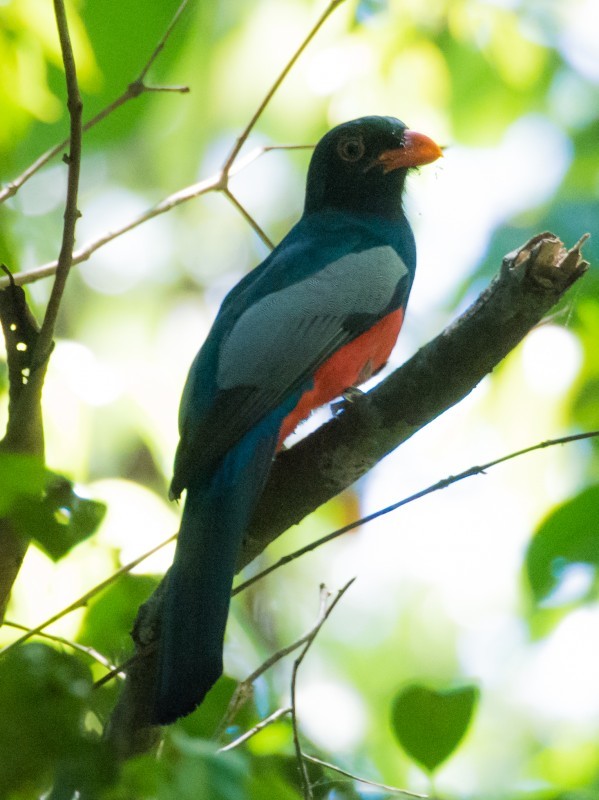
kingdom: Animalia
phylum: Chordata
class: Aves
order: Trogoniformes
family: Trogonidae
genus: Trogon
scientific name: Trogon massena
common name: Slaty-tailed trogon
